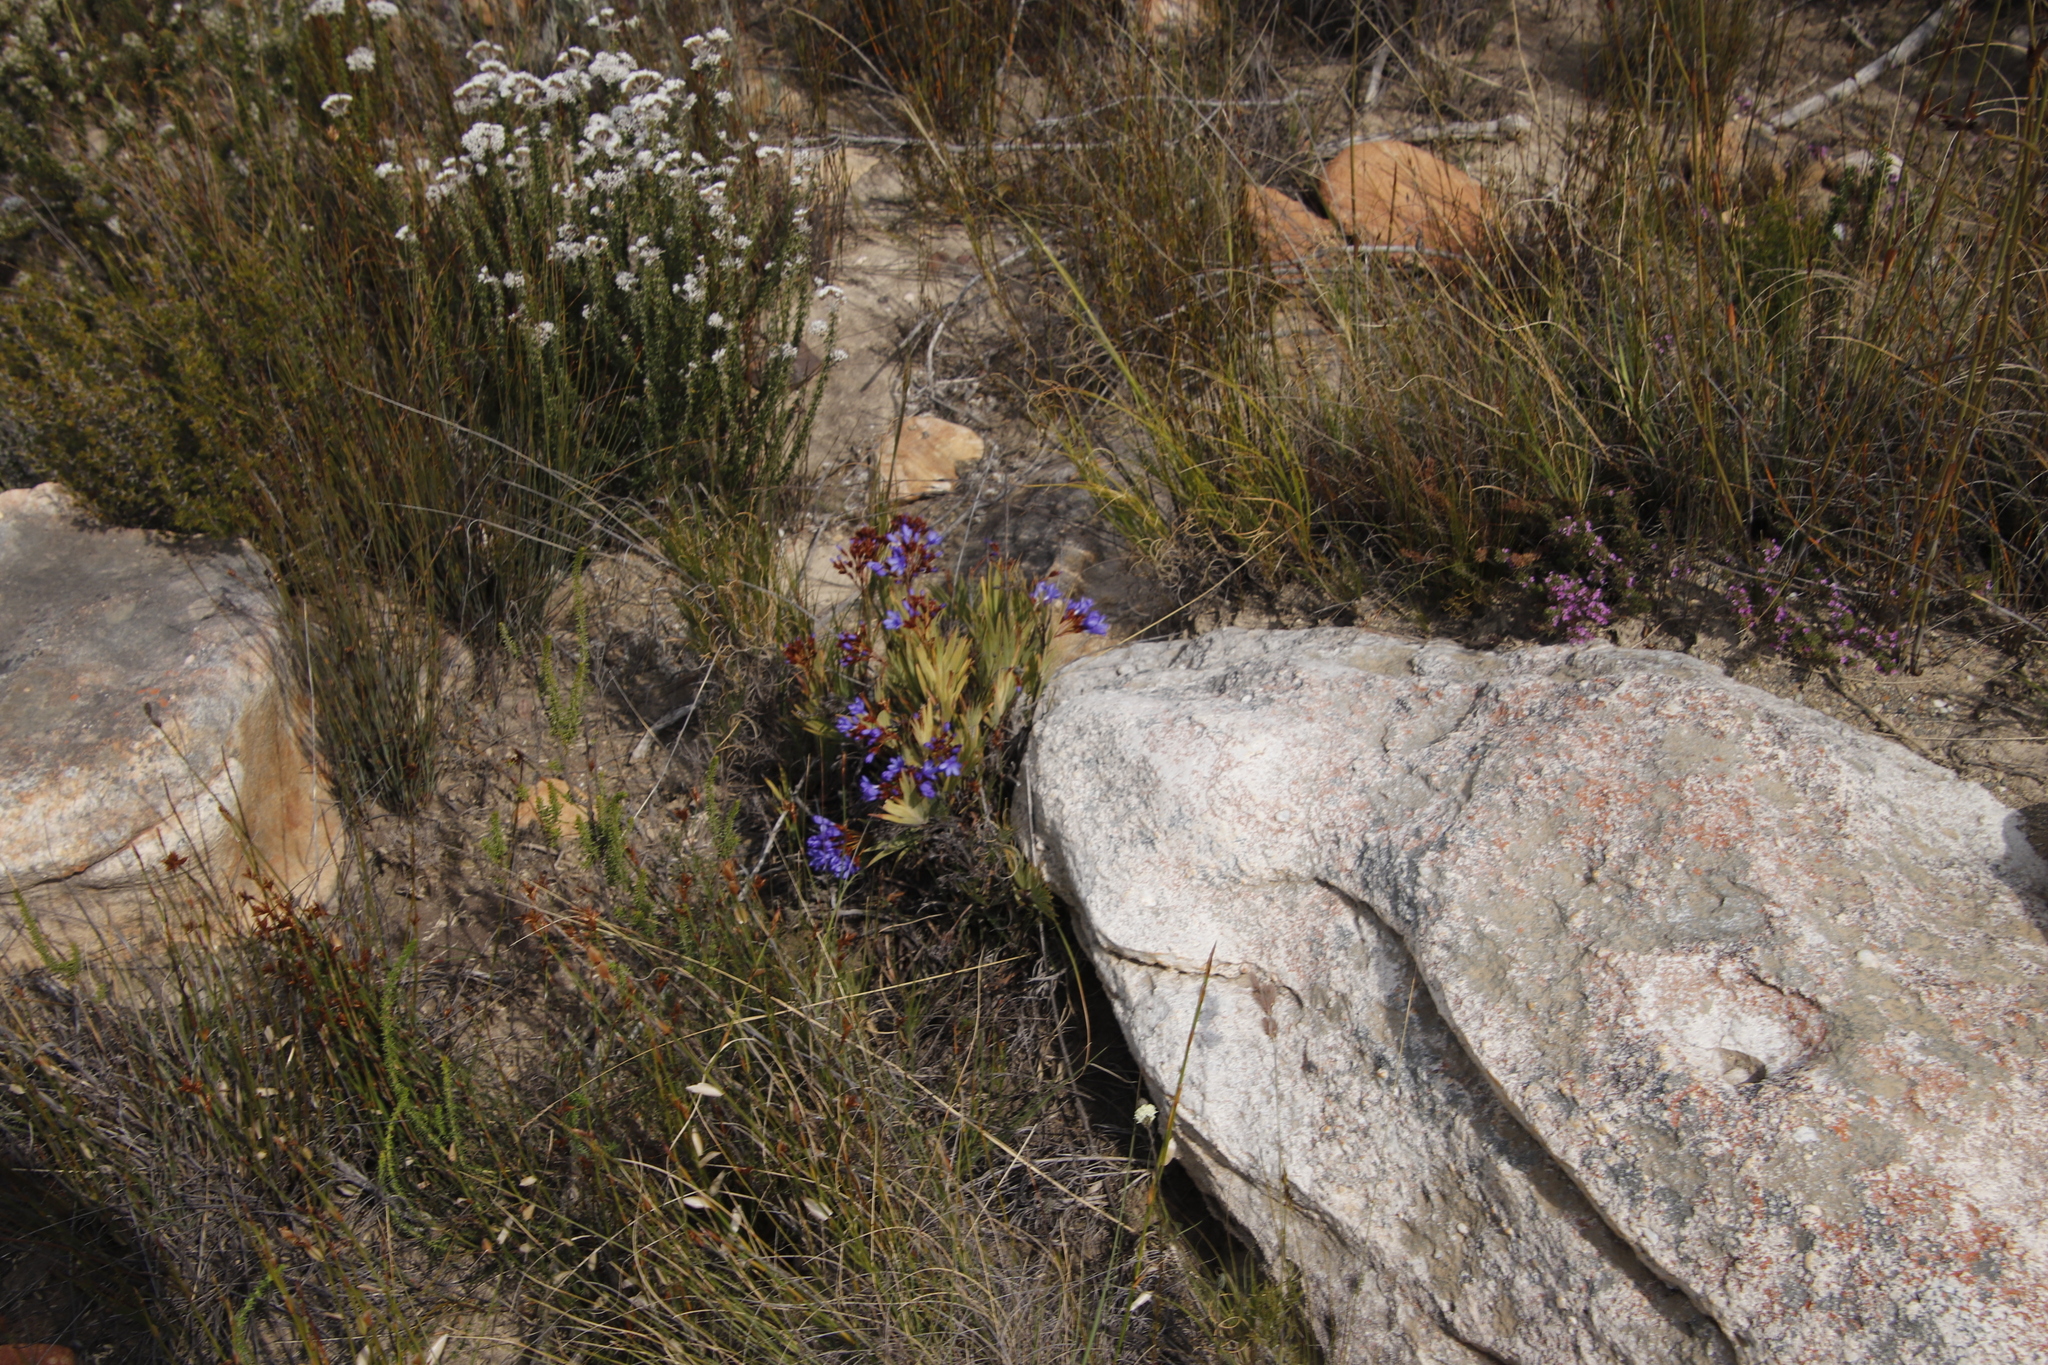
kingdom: Plantae
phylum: Tracheophyta
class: Liliopsida
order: Asparagales
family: Iridaceae
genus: Nivenia
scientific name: Nivenia binata
